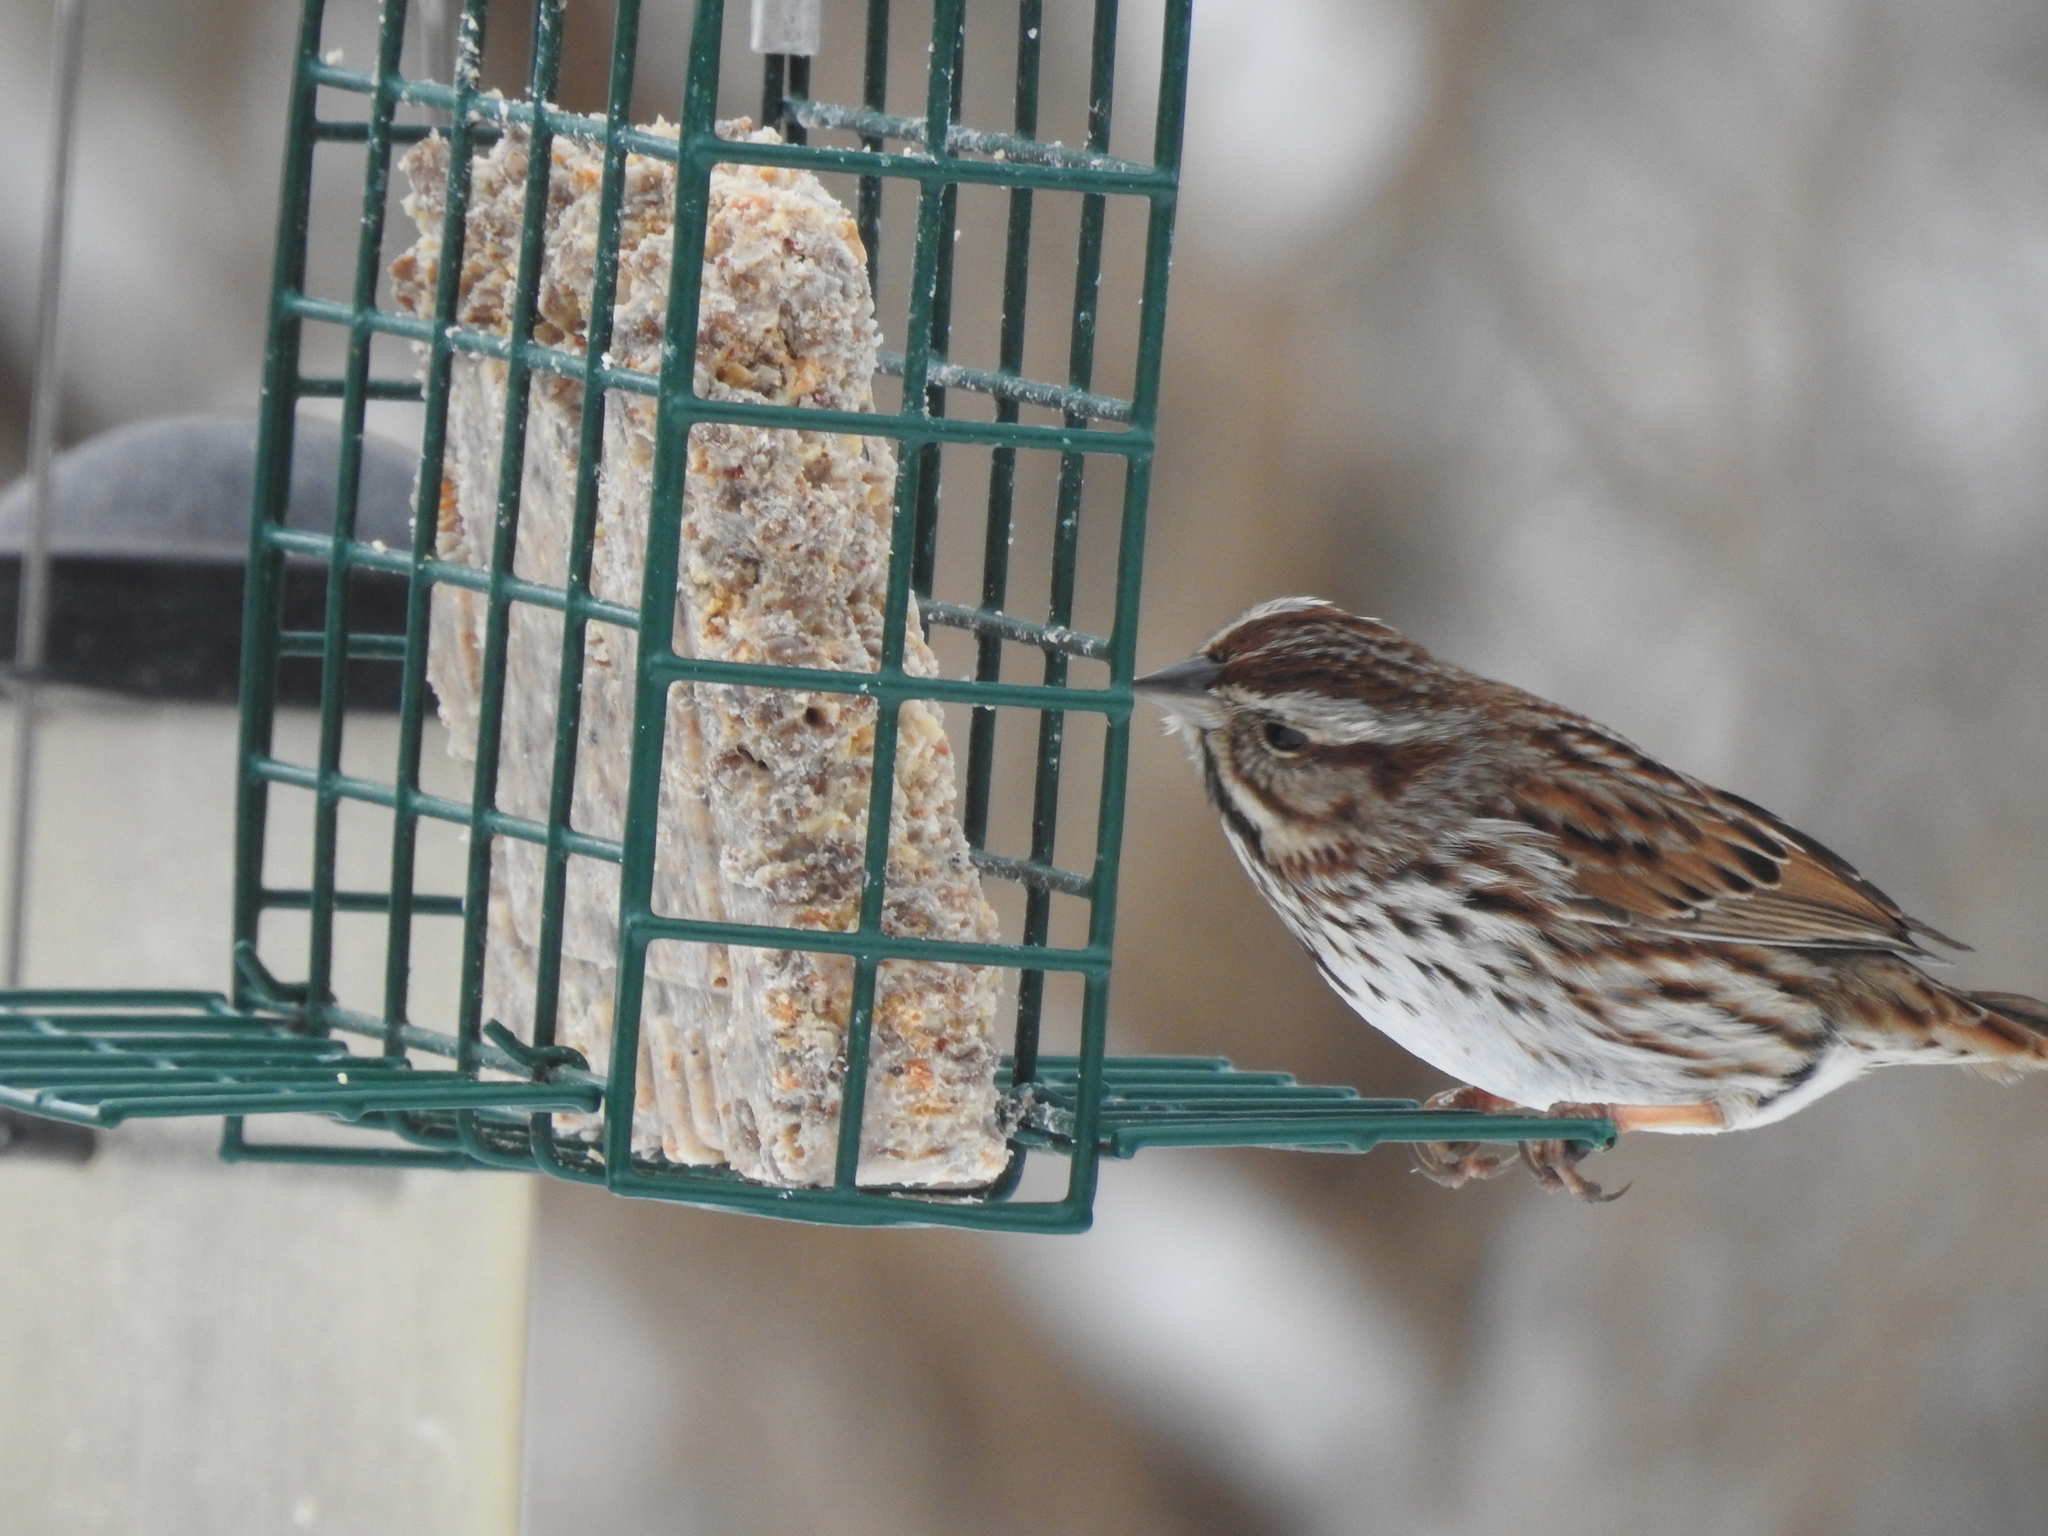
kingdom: Animalia
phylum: Chordata
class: Aves
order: Passeriformes
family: Passerellidae
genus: Melospiza
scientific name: Melospiza melodia
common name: Song sparrow
